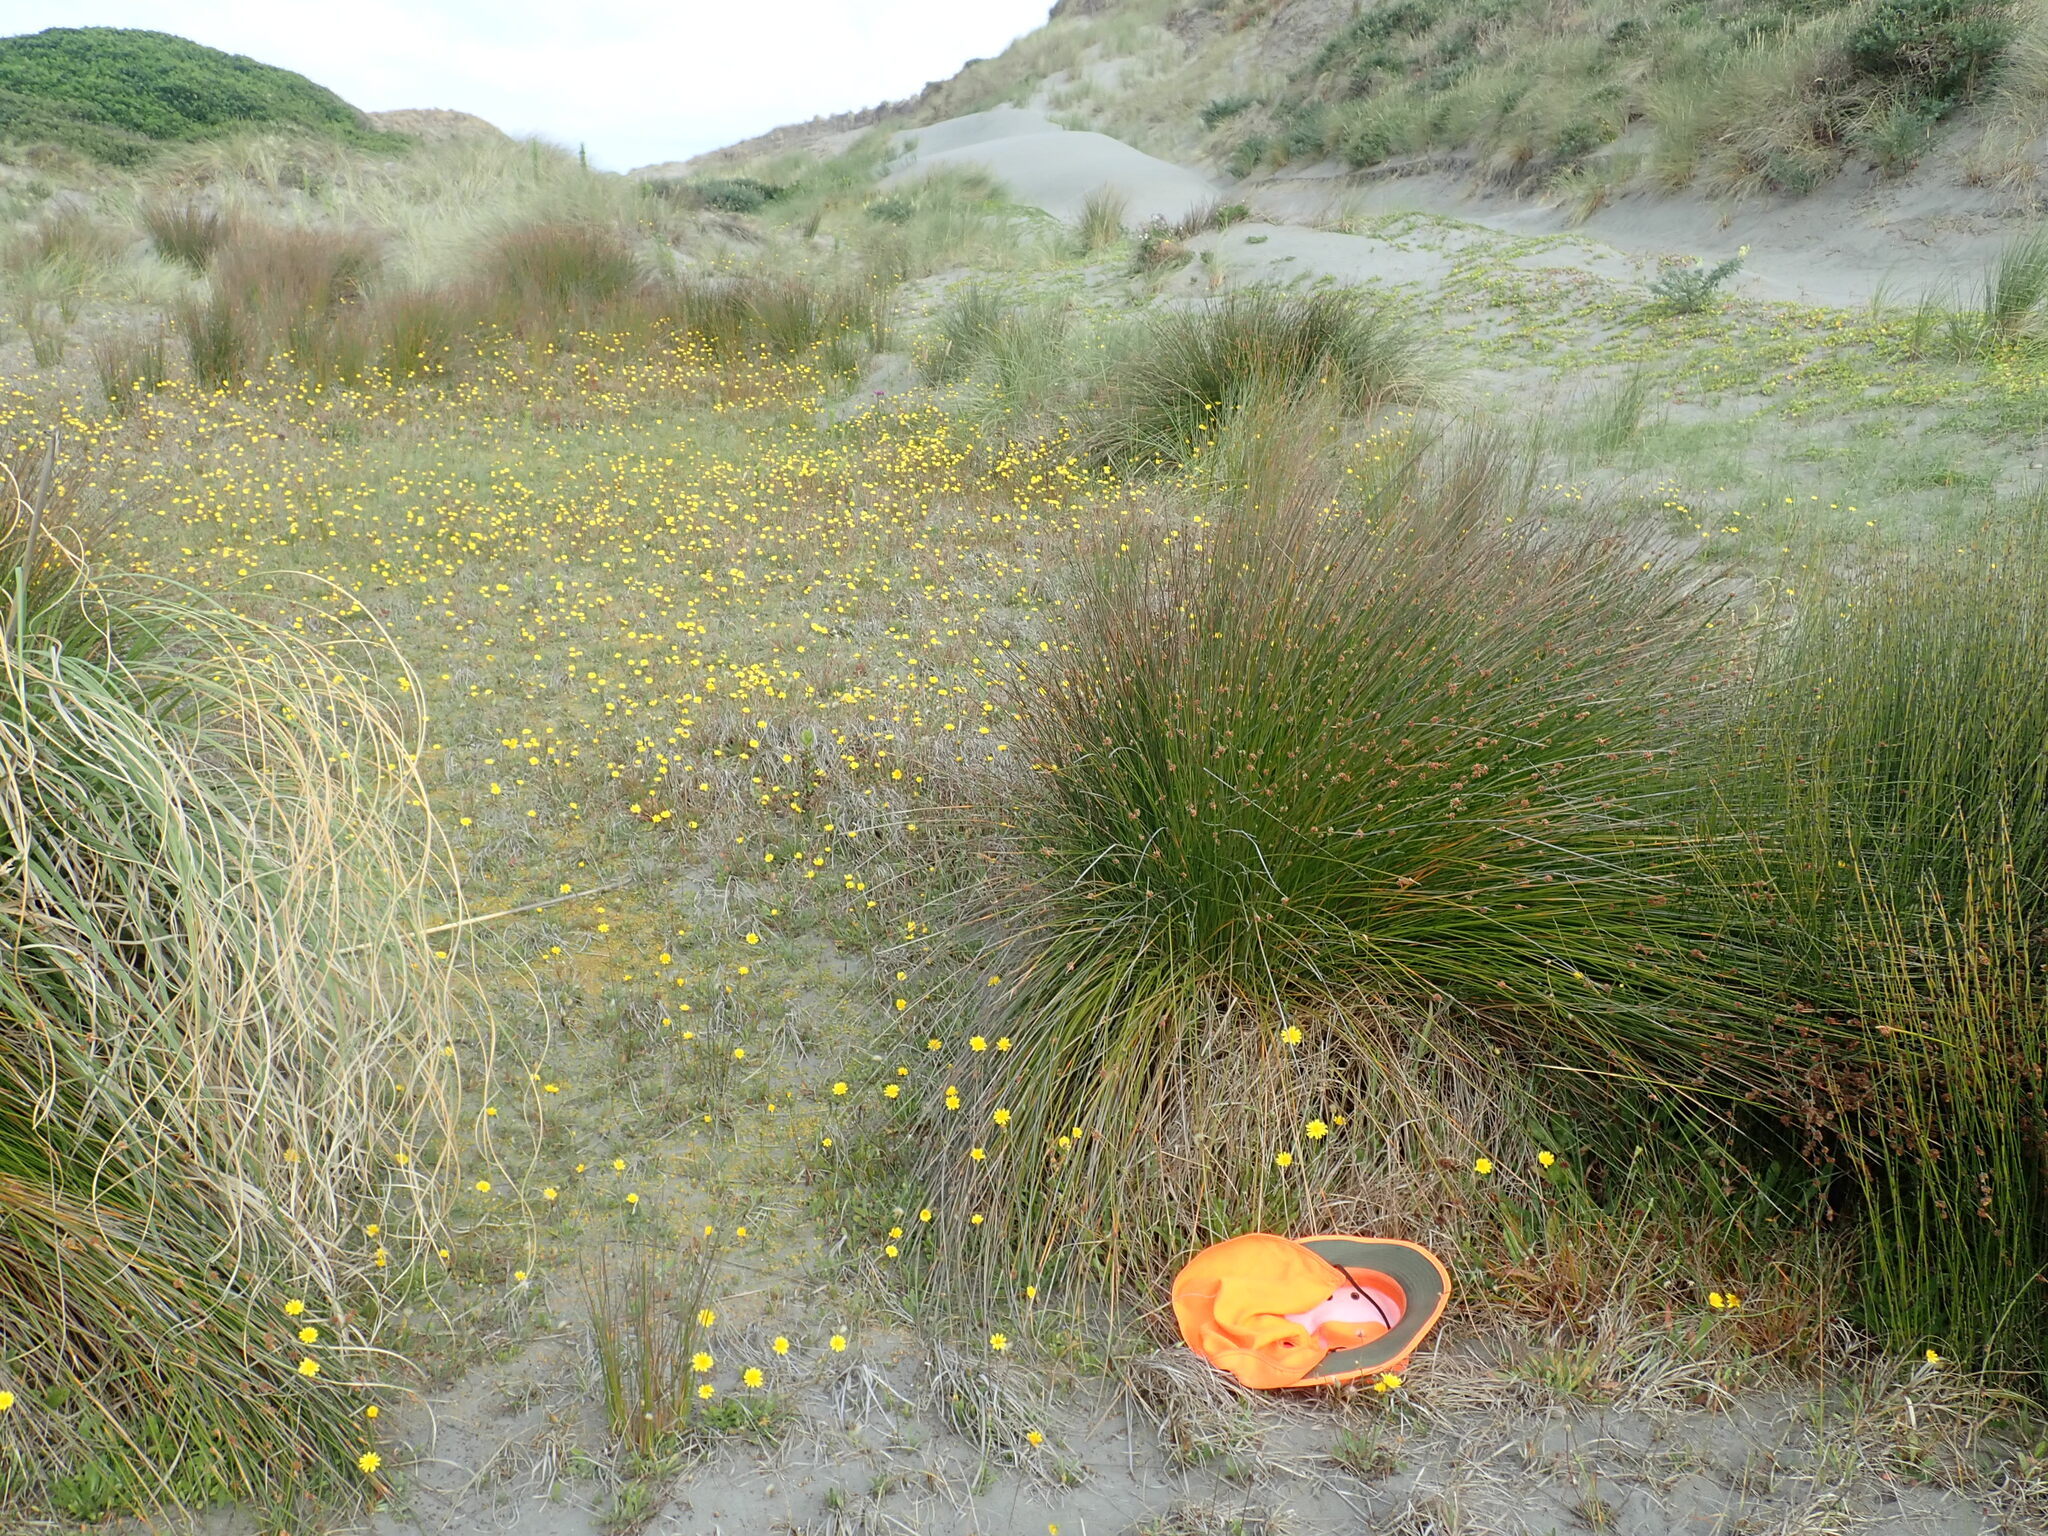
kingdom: Plantae
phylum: Tracheophyta
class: Liliopsida
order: Poales
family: Juncaceae
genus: Juncus
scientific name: Juncus caespiticius
